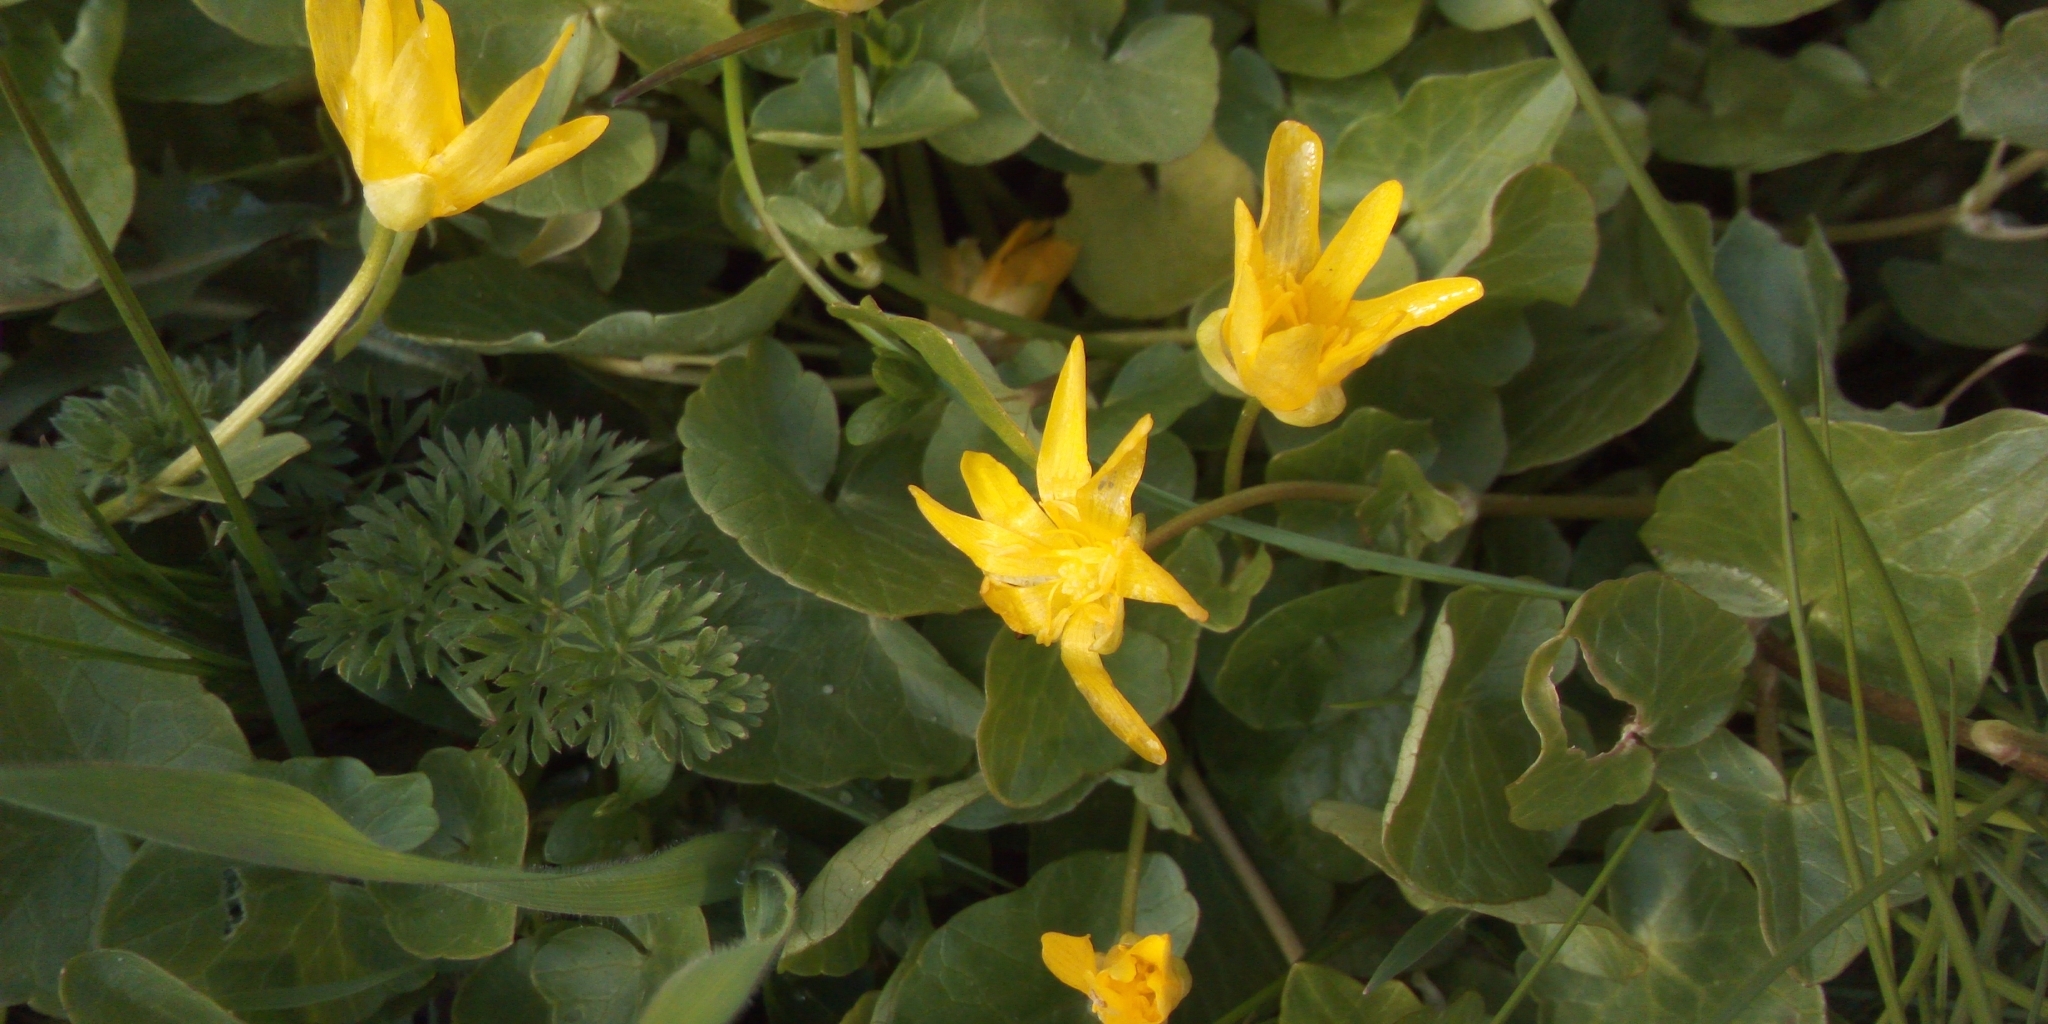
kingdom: Plantae
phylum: Tracheophyta
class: Magnoliopsida
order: Ranunculales
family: Ranunculaceae
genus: Ficaria
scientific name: Ficaria verna
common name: Lesser celandine
